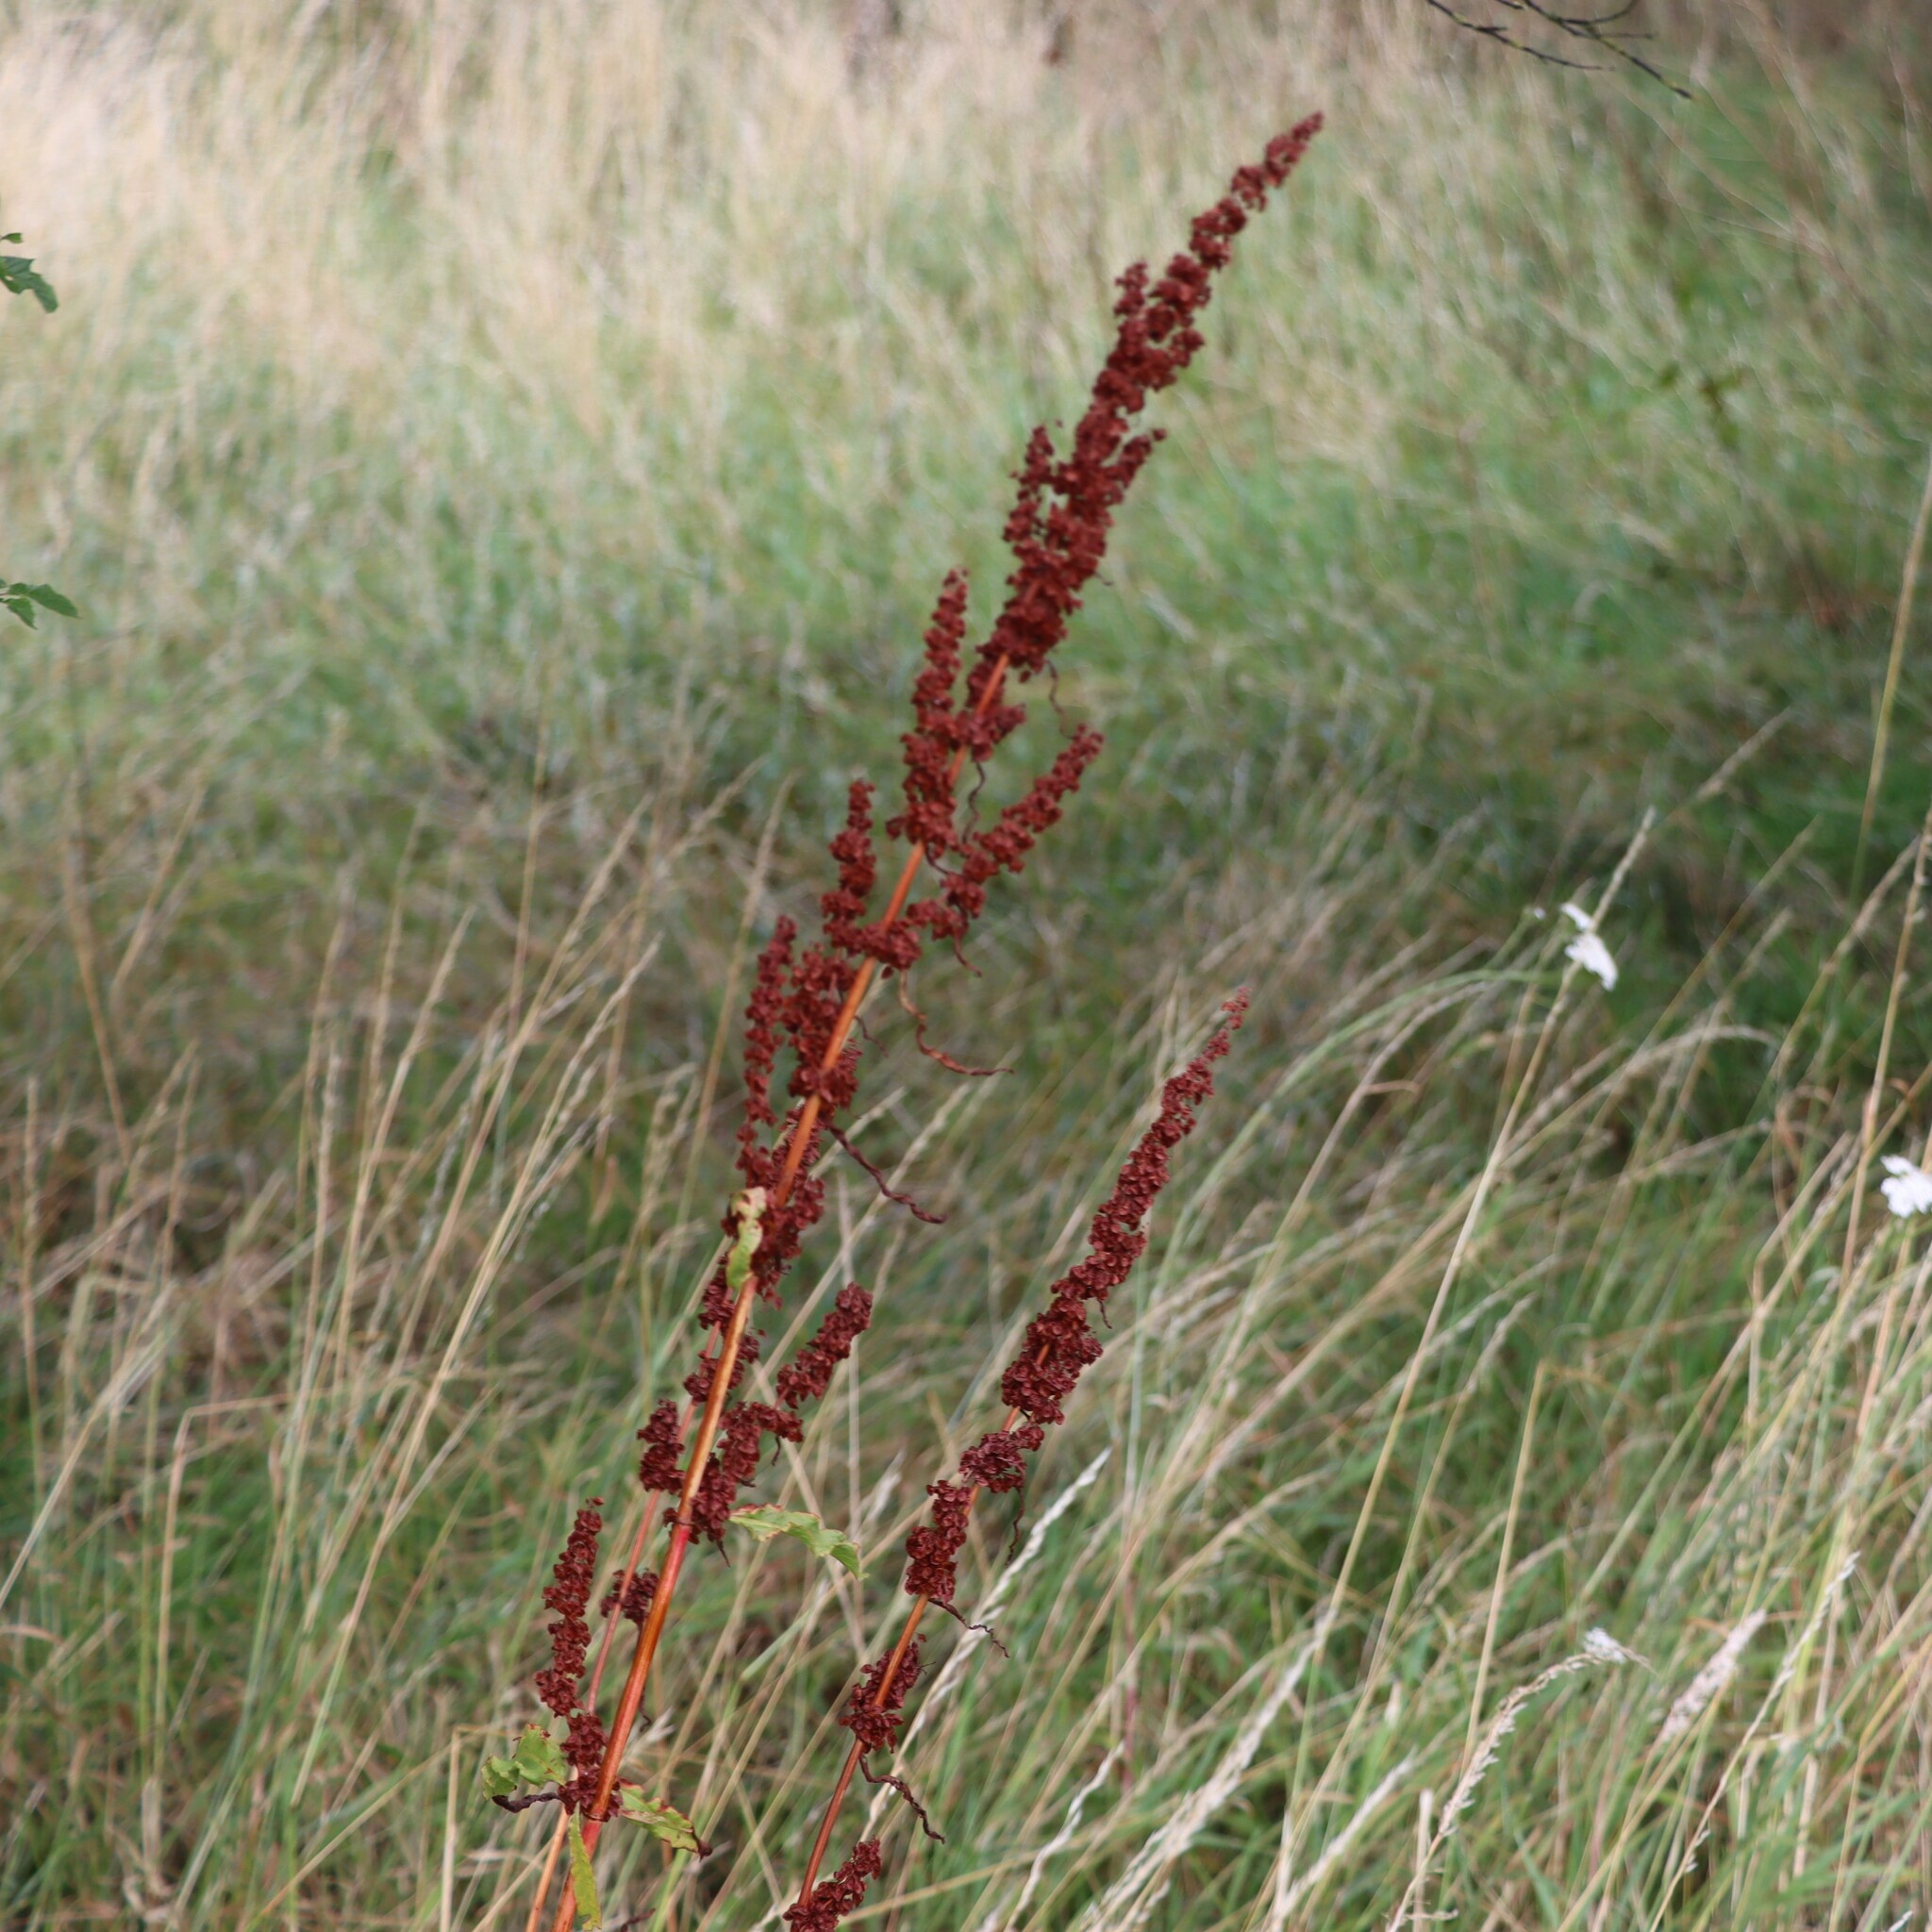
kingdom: Plantae
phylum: Tracheophyta
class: Magnoliopsida
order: Caryophyllales
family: Polygonaceae
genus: Rumex
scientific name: Rumex crispus
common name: Curled dock
